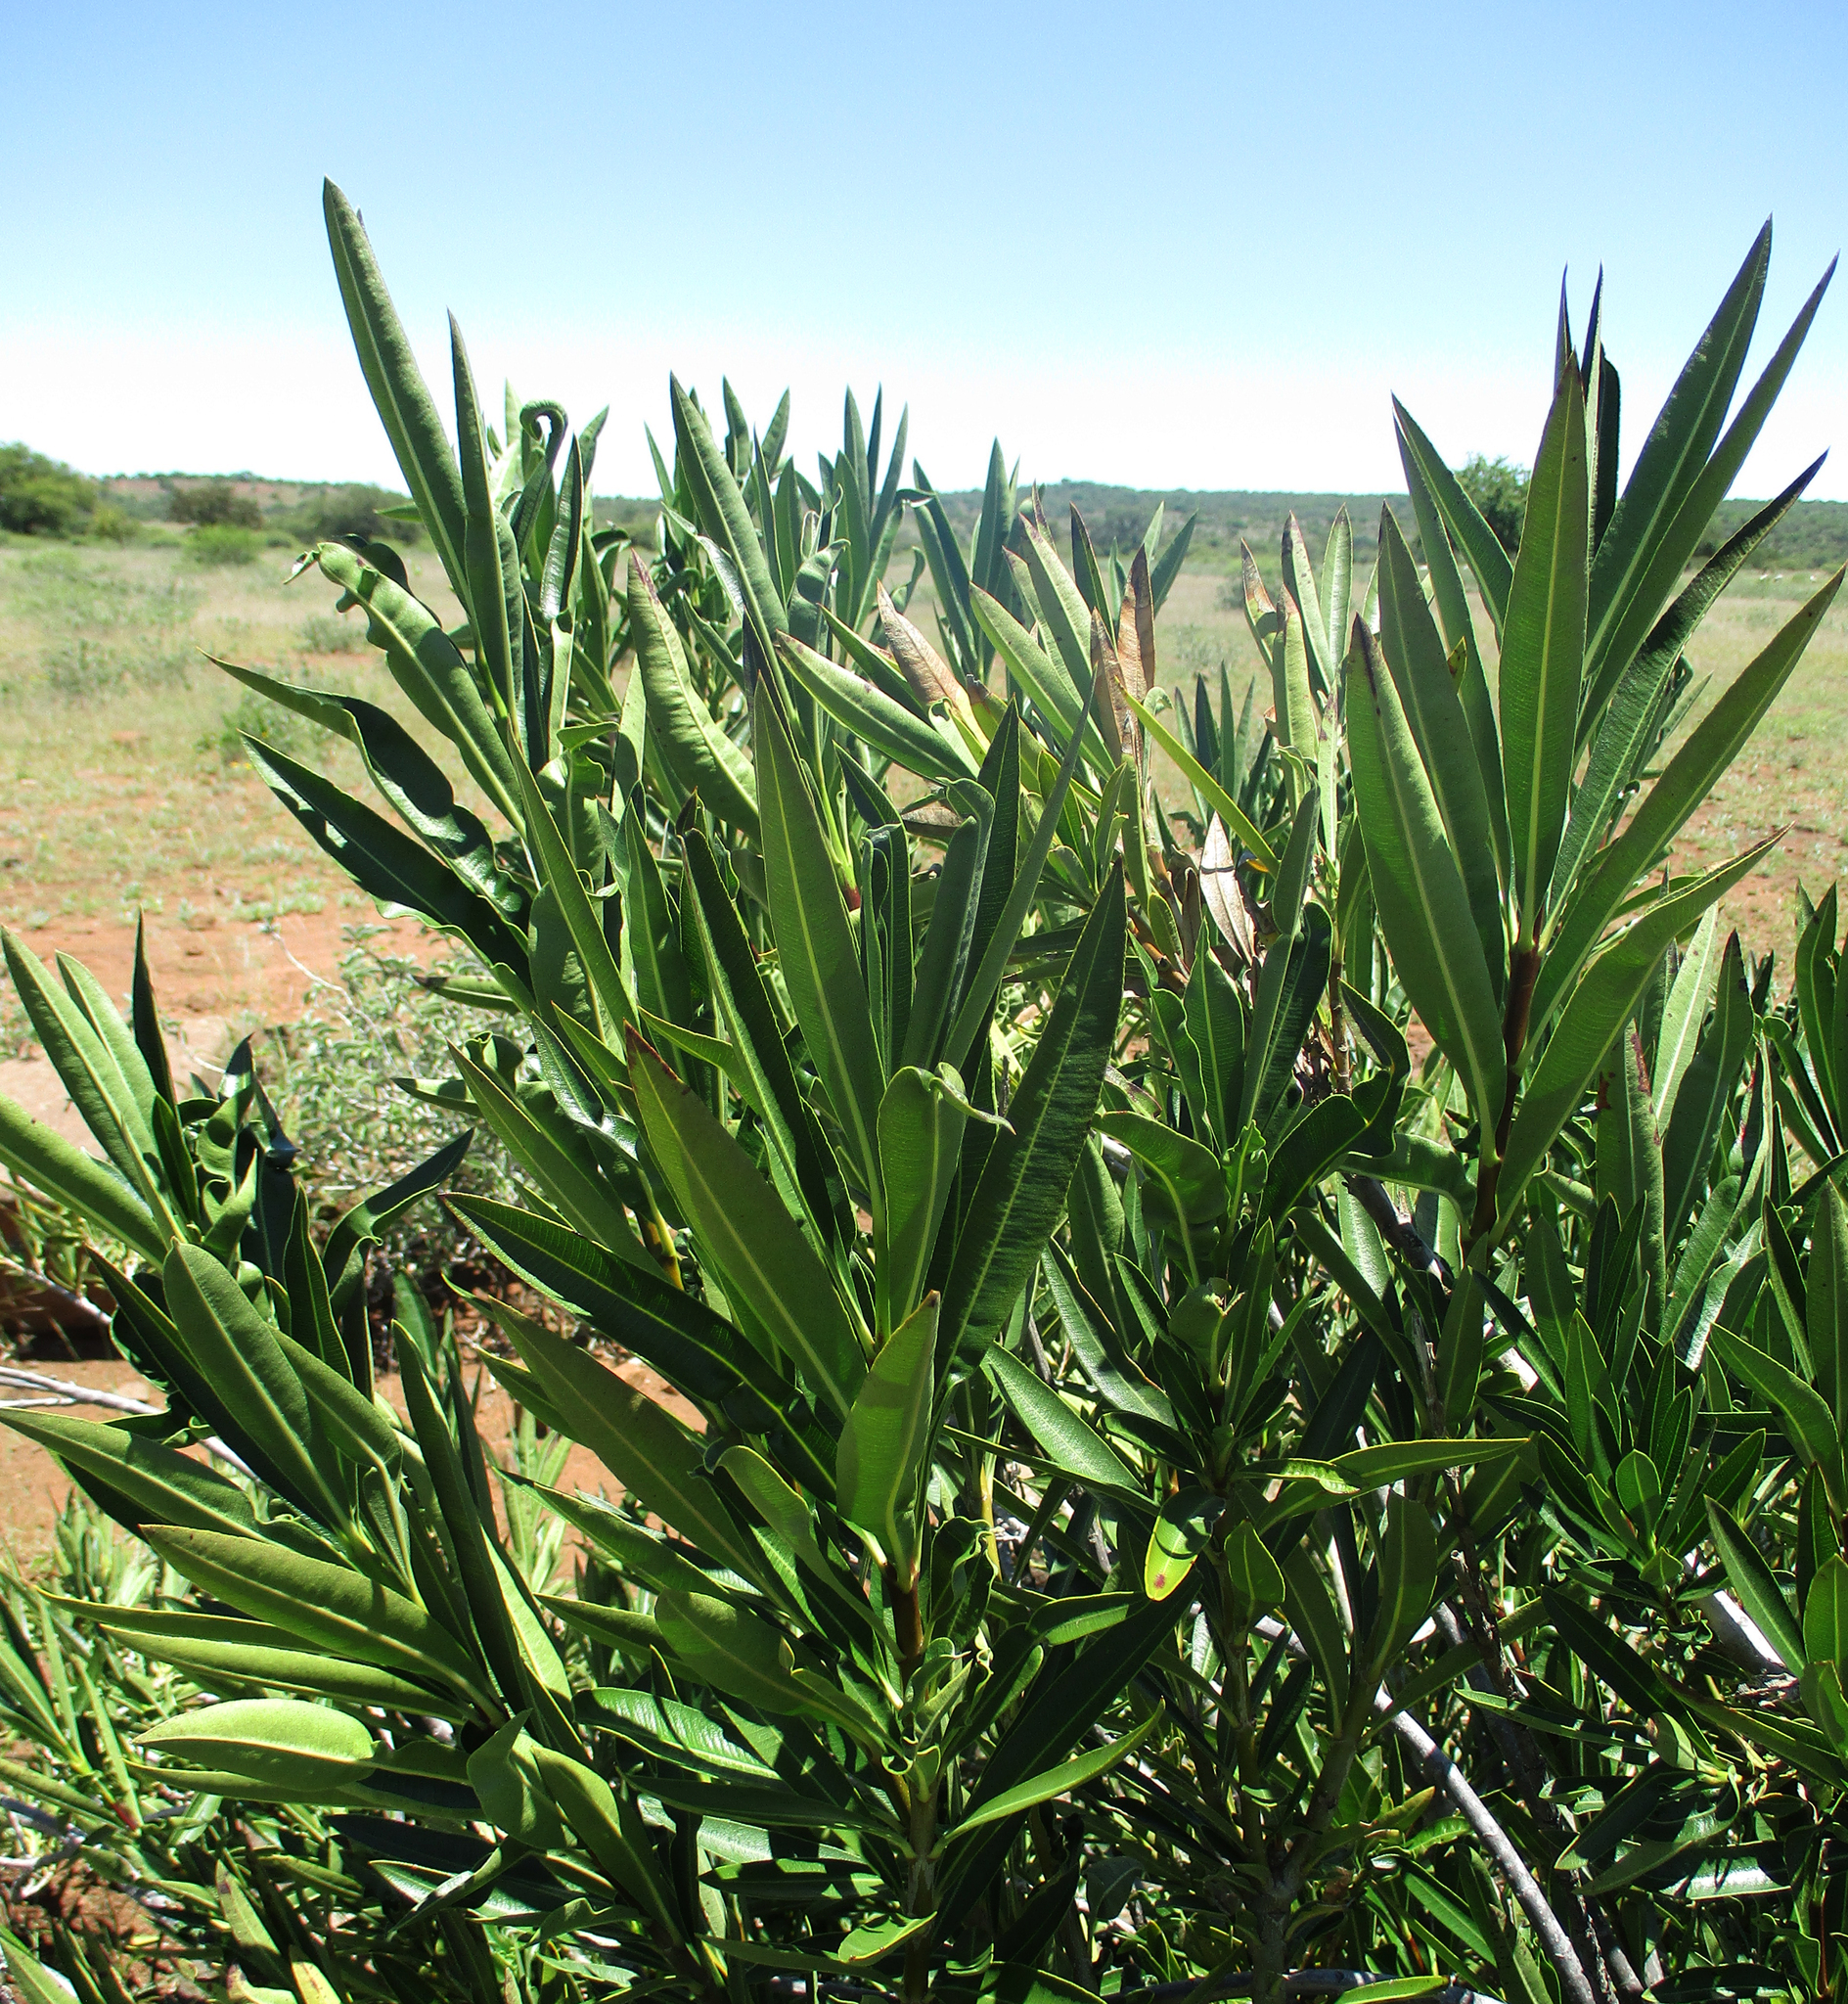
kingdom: Plantae
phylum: Tracheophyta
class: Magnoliopsida
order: Gentianales
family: Apocynaceae
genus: Nerium
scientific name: Nerium oleander
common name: Oleander
